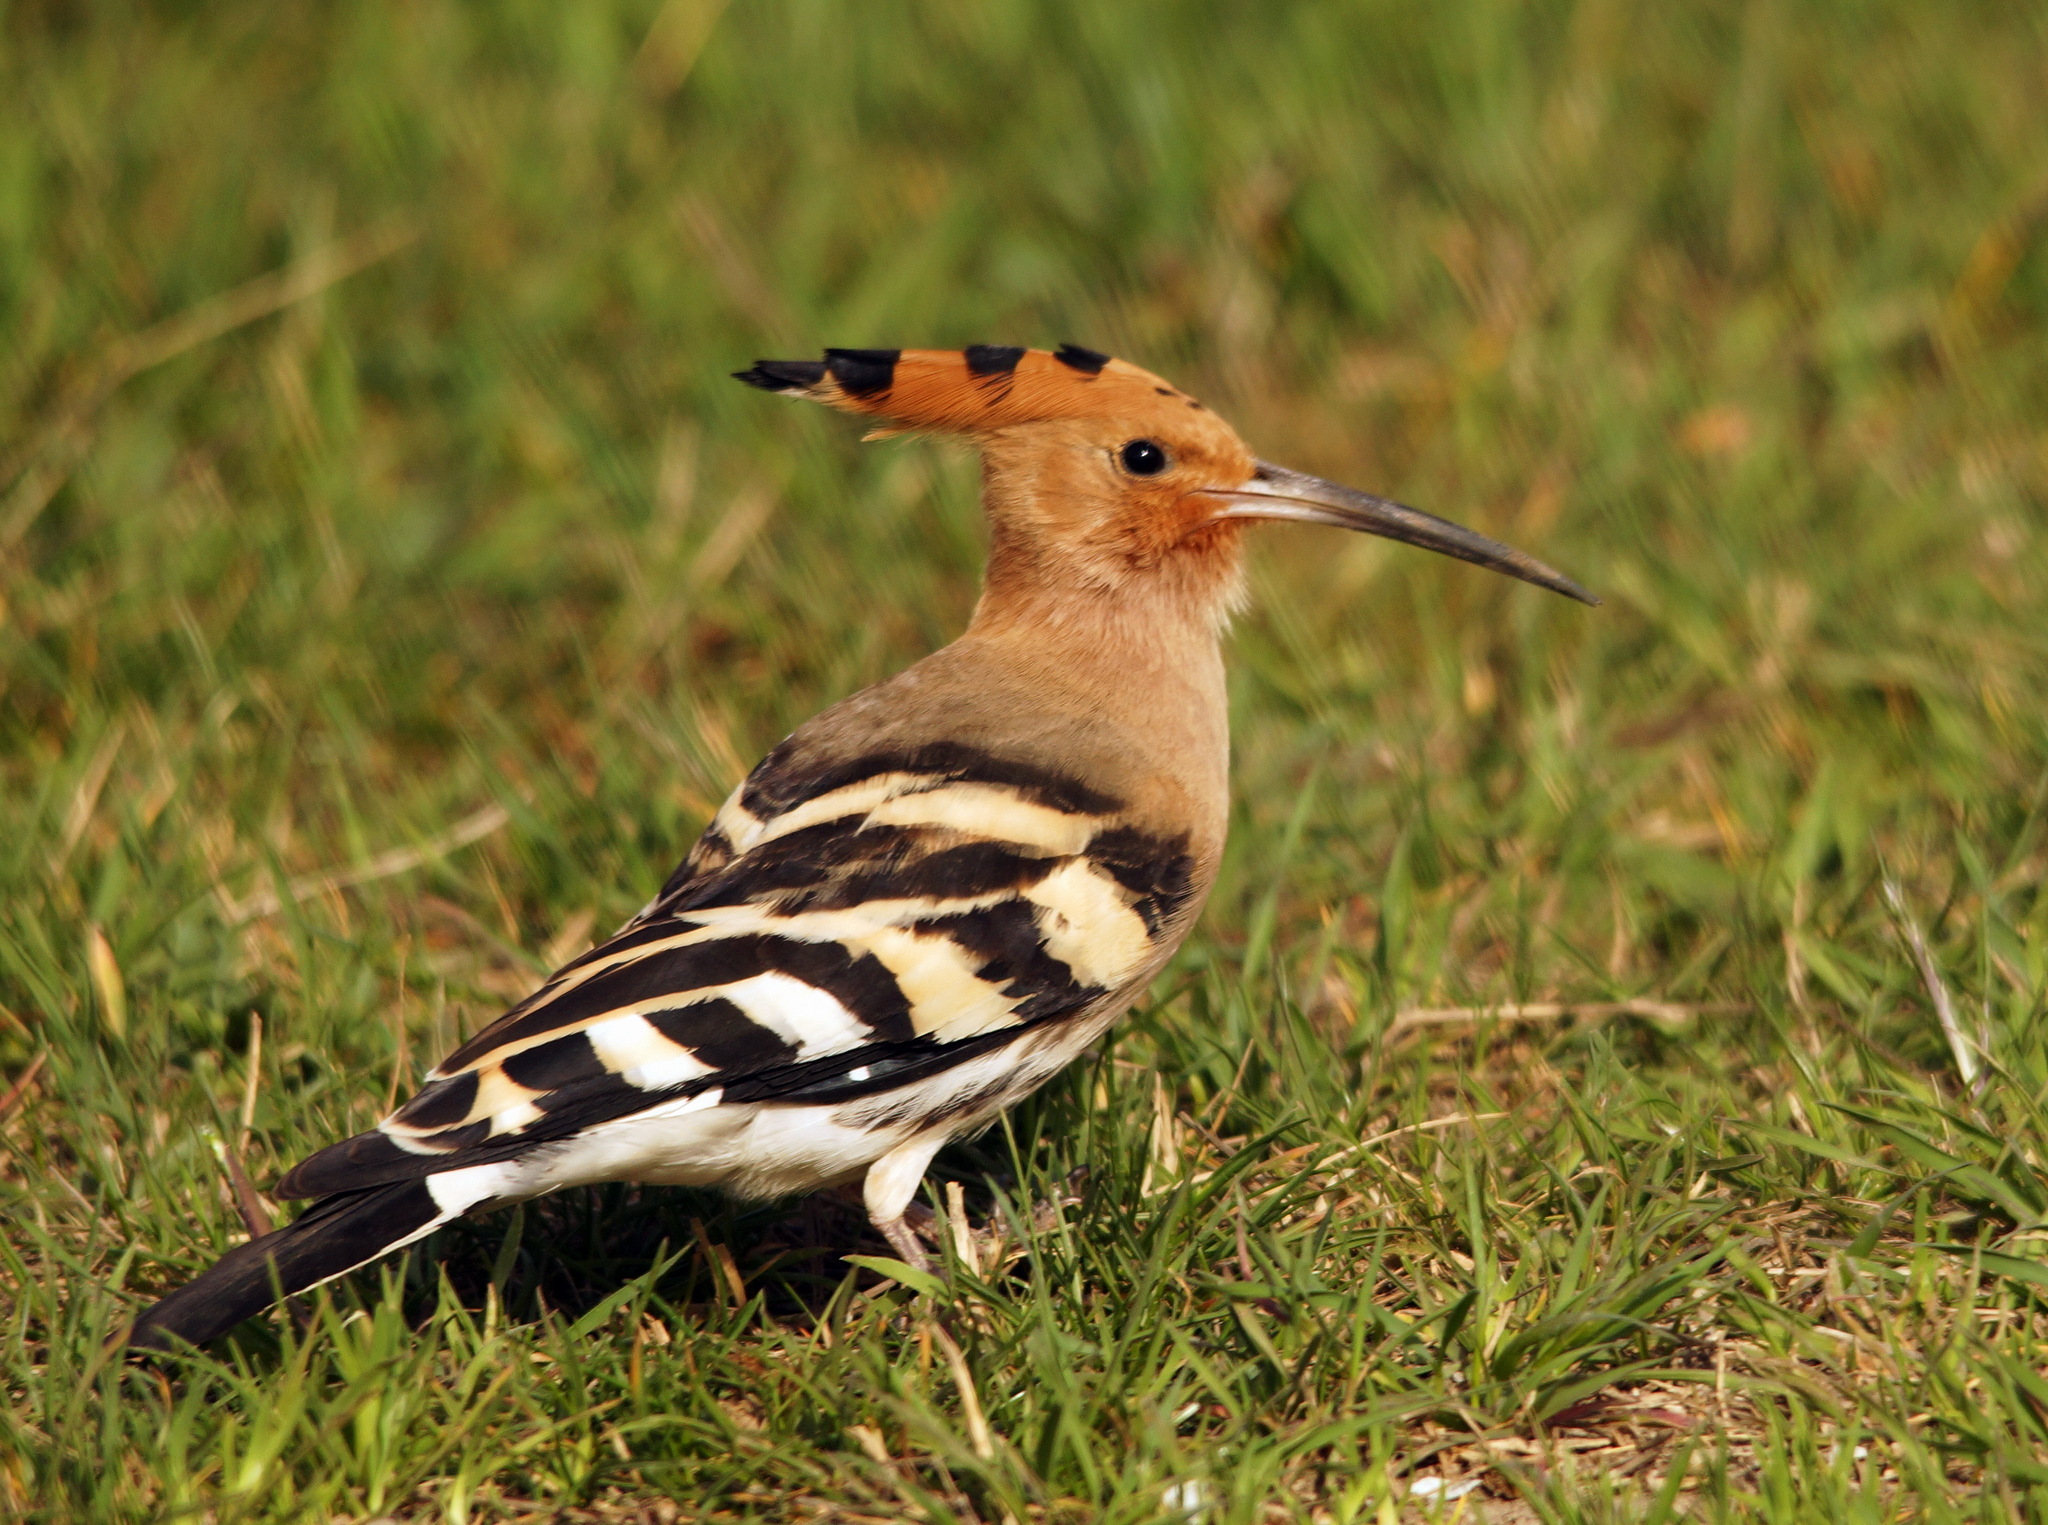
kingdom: Animalia
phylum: Chordata
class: Aves
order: Bucerotiformes
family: Upupidae
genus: Upupa
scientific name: Upupa epops
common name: Eurasian hoopoe
